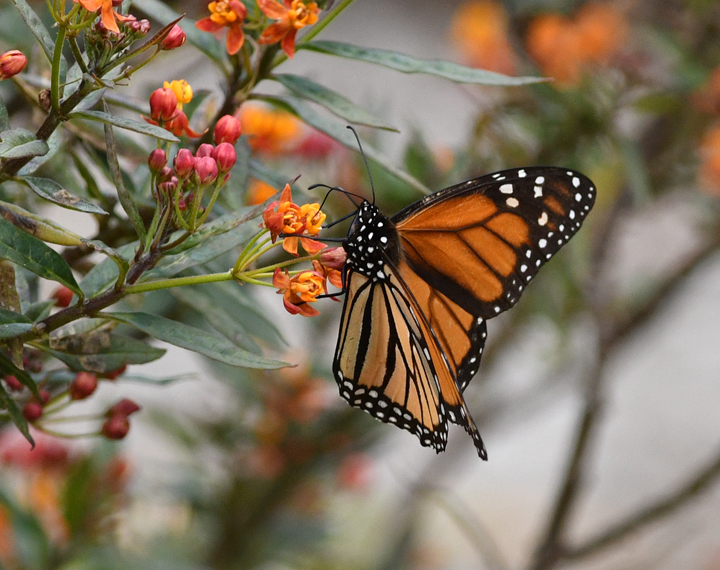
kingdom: Animalia
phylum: Arthropoda
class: Insecta
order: Lepidoptera
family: Nymphalidae
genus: Danaus
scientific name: Danaus plexippus
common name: Monarch
